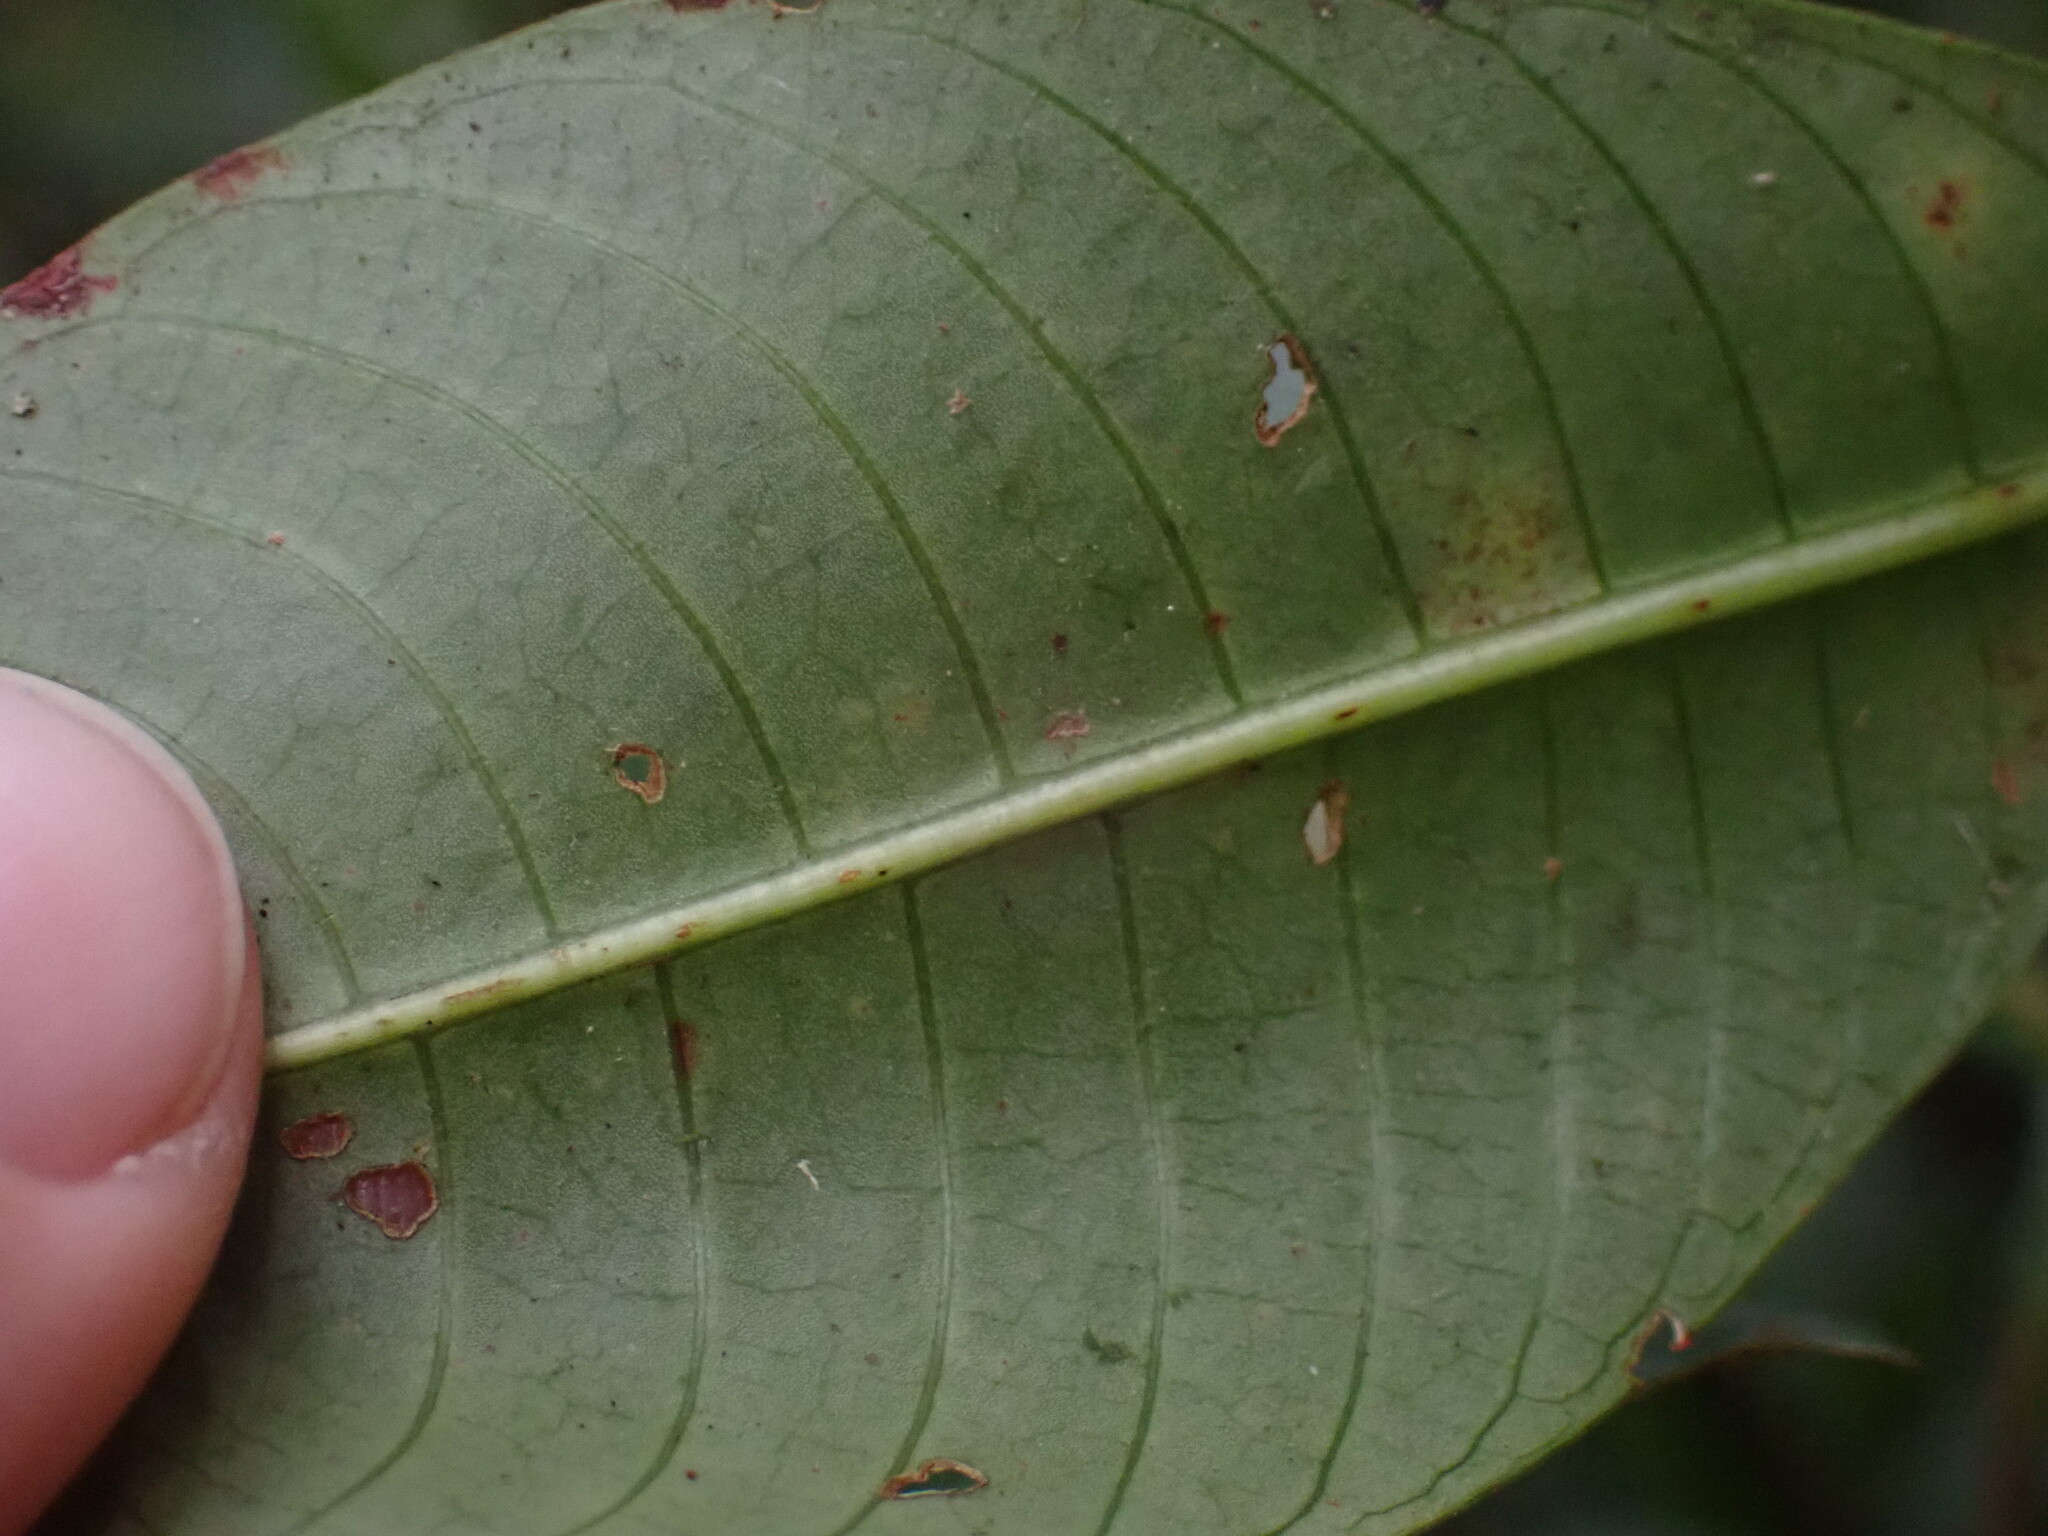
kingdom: Plantae
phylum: Tracheophyta
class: Magnoliopsida
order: Gentianales
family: Rubiaceae
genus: Palicourea
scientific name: Palicourea elata
